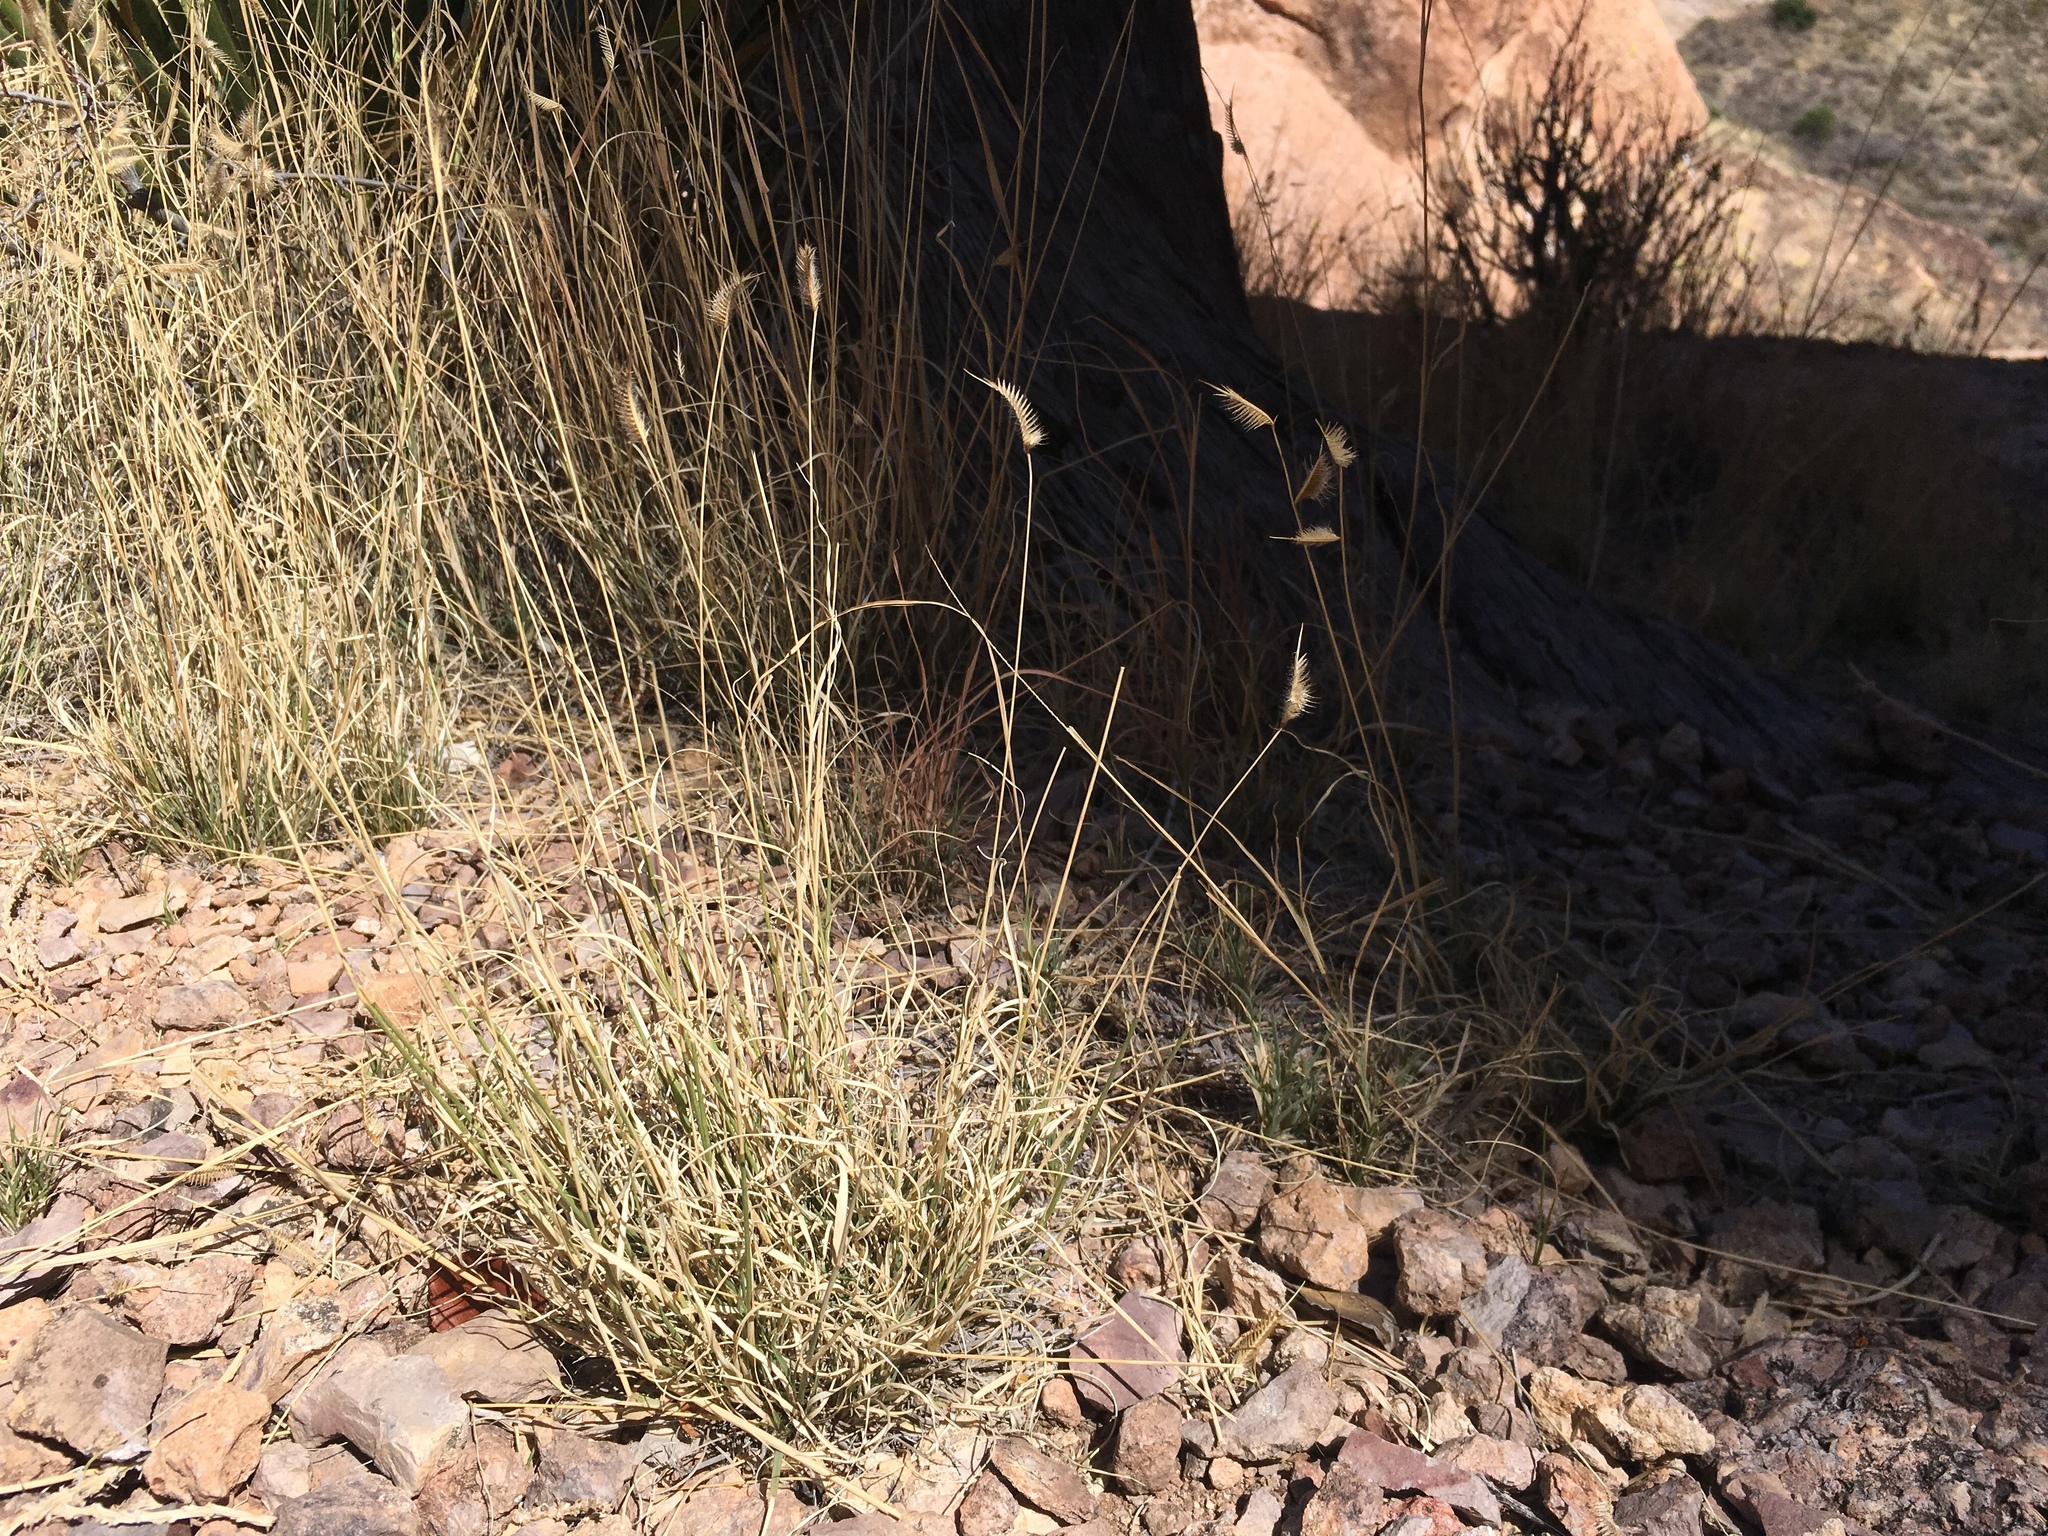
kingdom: Plantae
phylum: Tracheophyta
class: Liliopsida
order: Poales
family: Poaceae
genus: Bouteloua
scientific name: Bouteloua hirsuta
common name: Hairy grama
